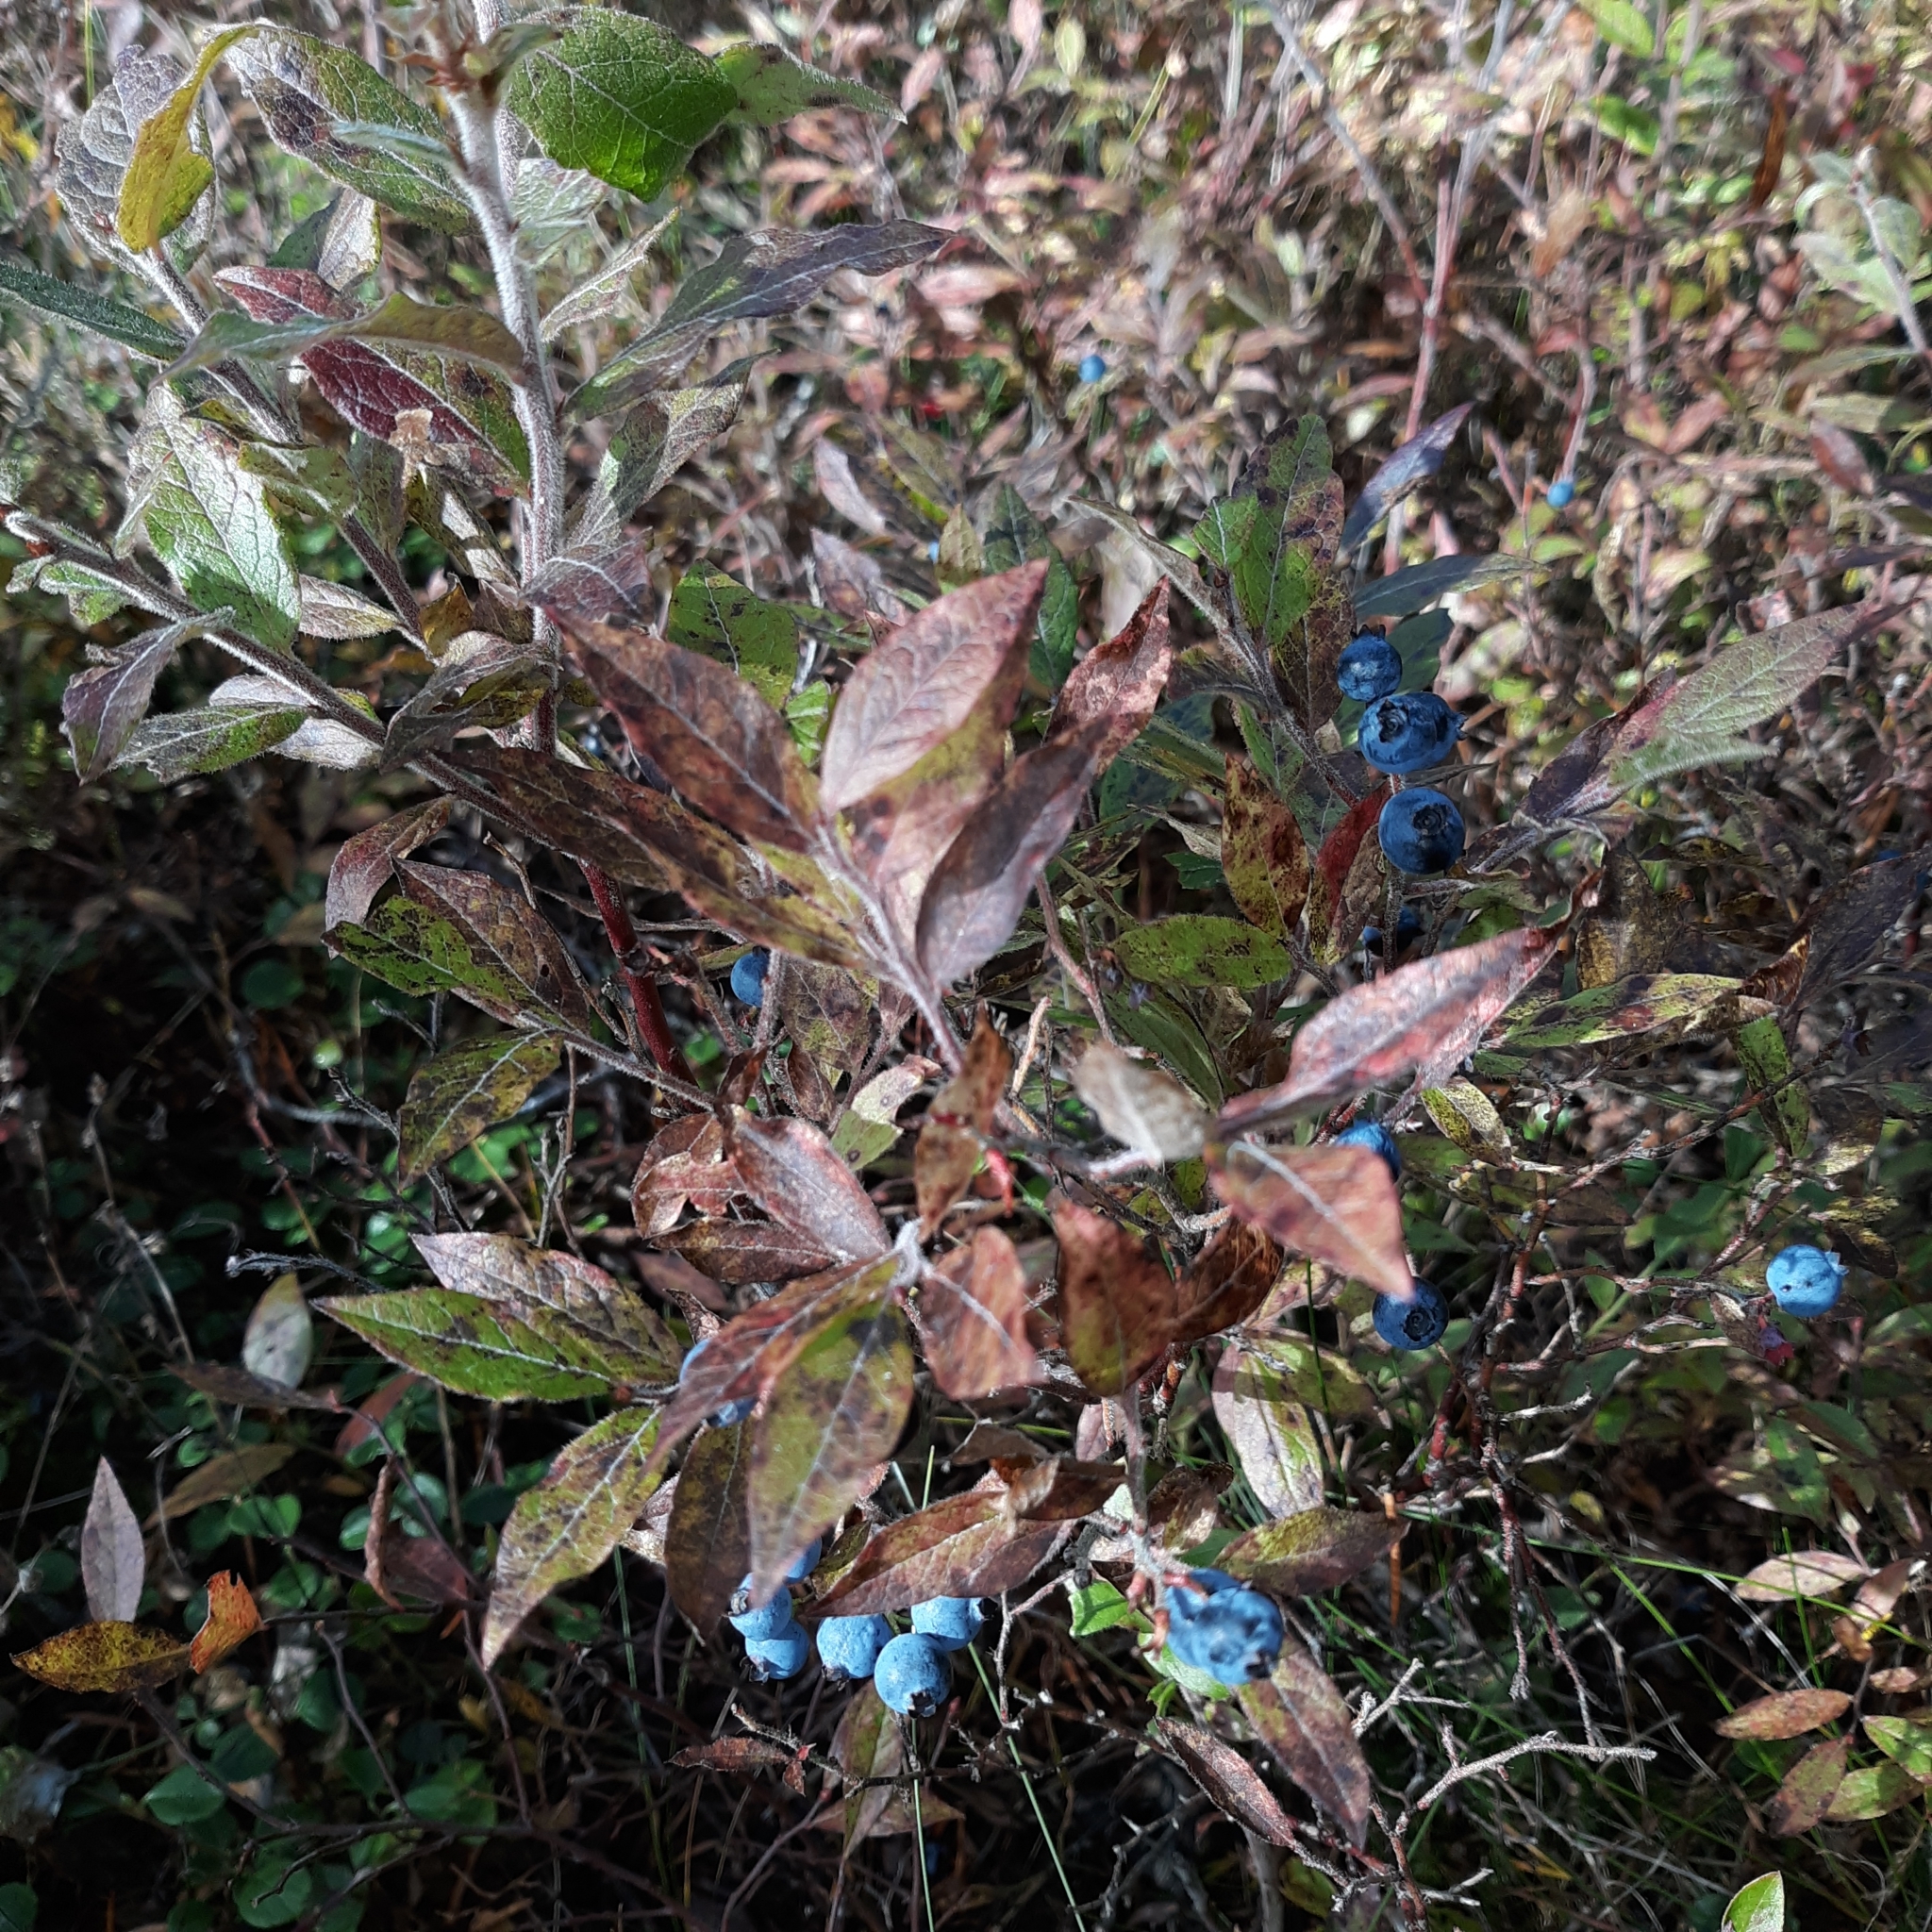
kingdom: Plantae
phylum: Tracheophyta
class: Magnoliopsida
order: Ericales
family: Ericaceae
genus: Vaccinium
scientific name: Vaccinium myrtilloides
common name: Canada blueberry
